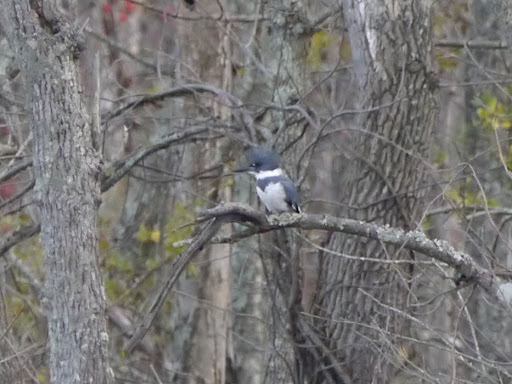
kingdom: Animalia
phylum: Chordata
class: Aves
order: Coraciiformes
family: Alcedinidae
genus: Megaceryle
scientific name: Megaceryle alcyon
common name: Belted kingfisher
